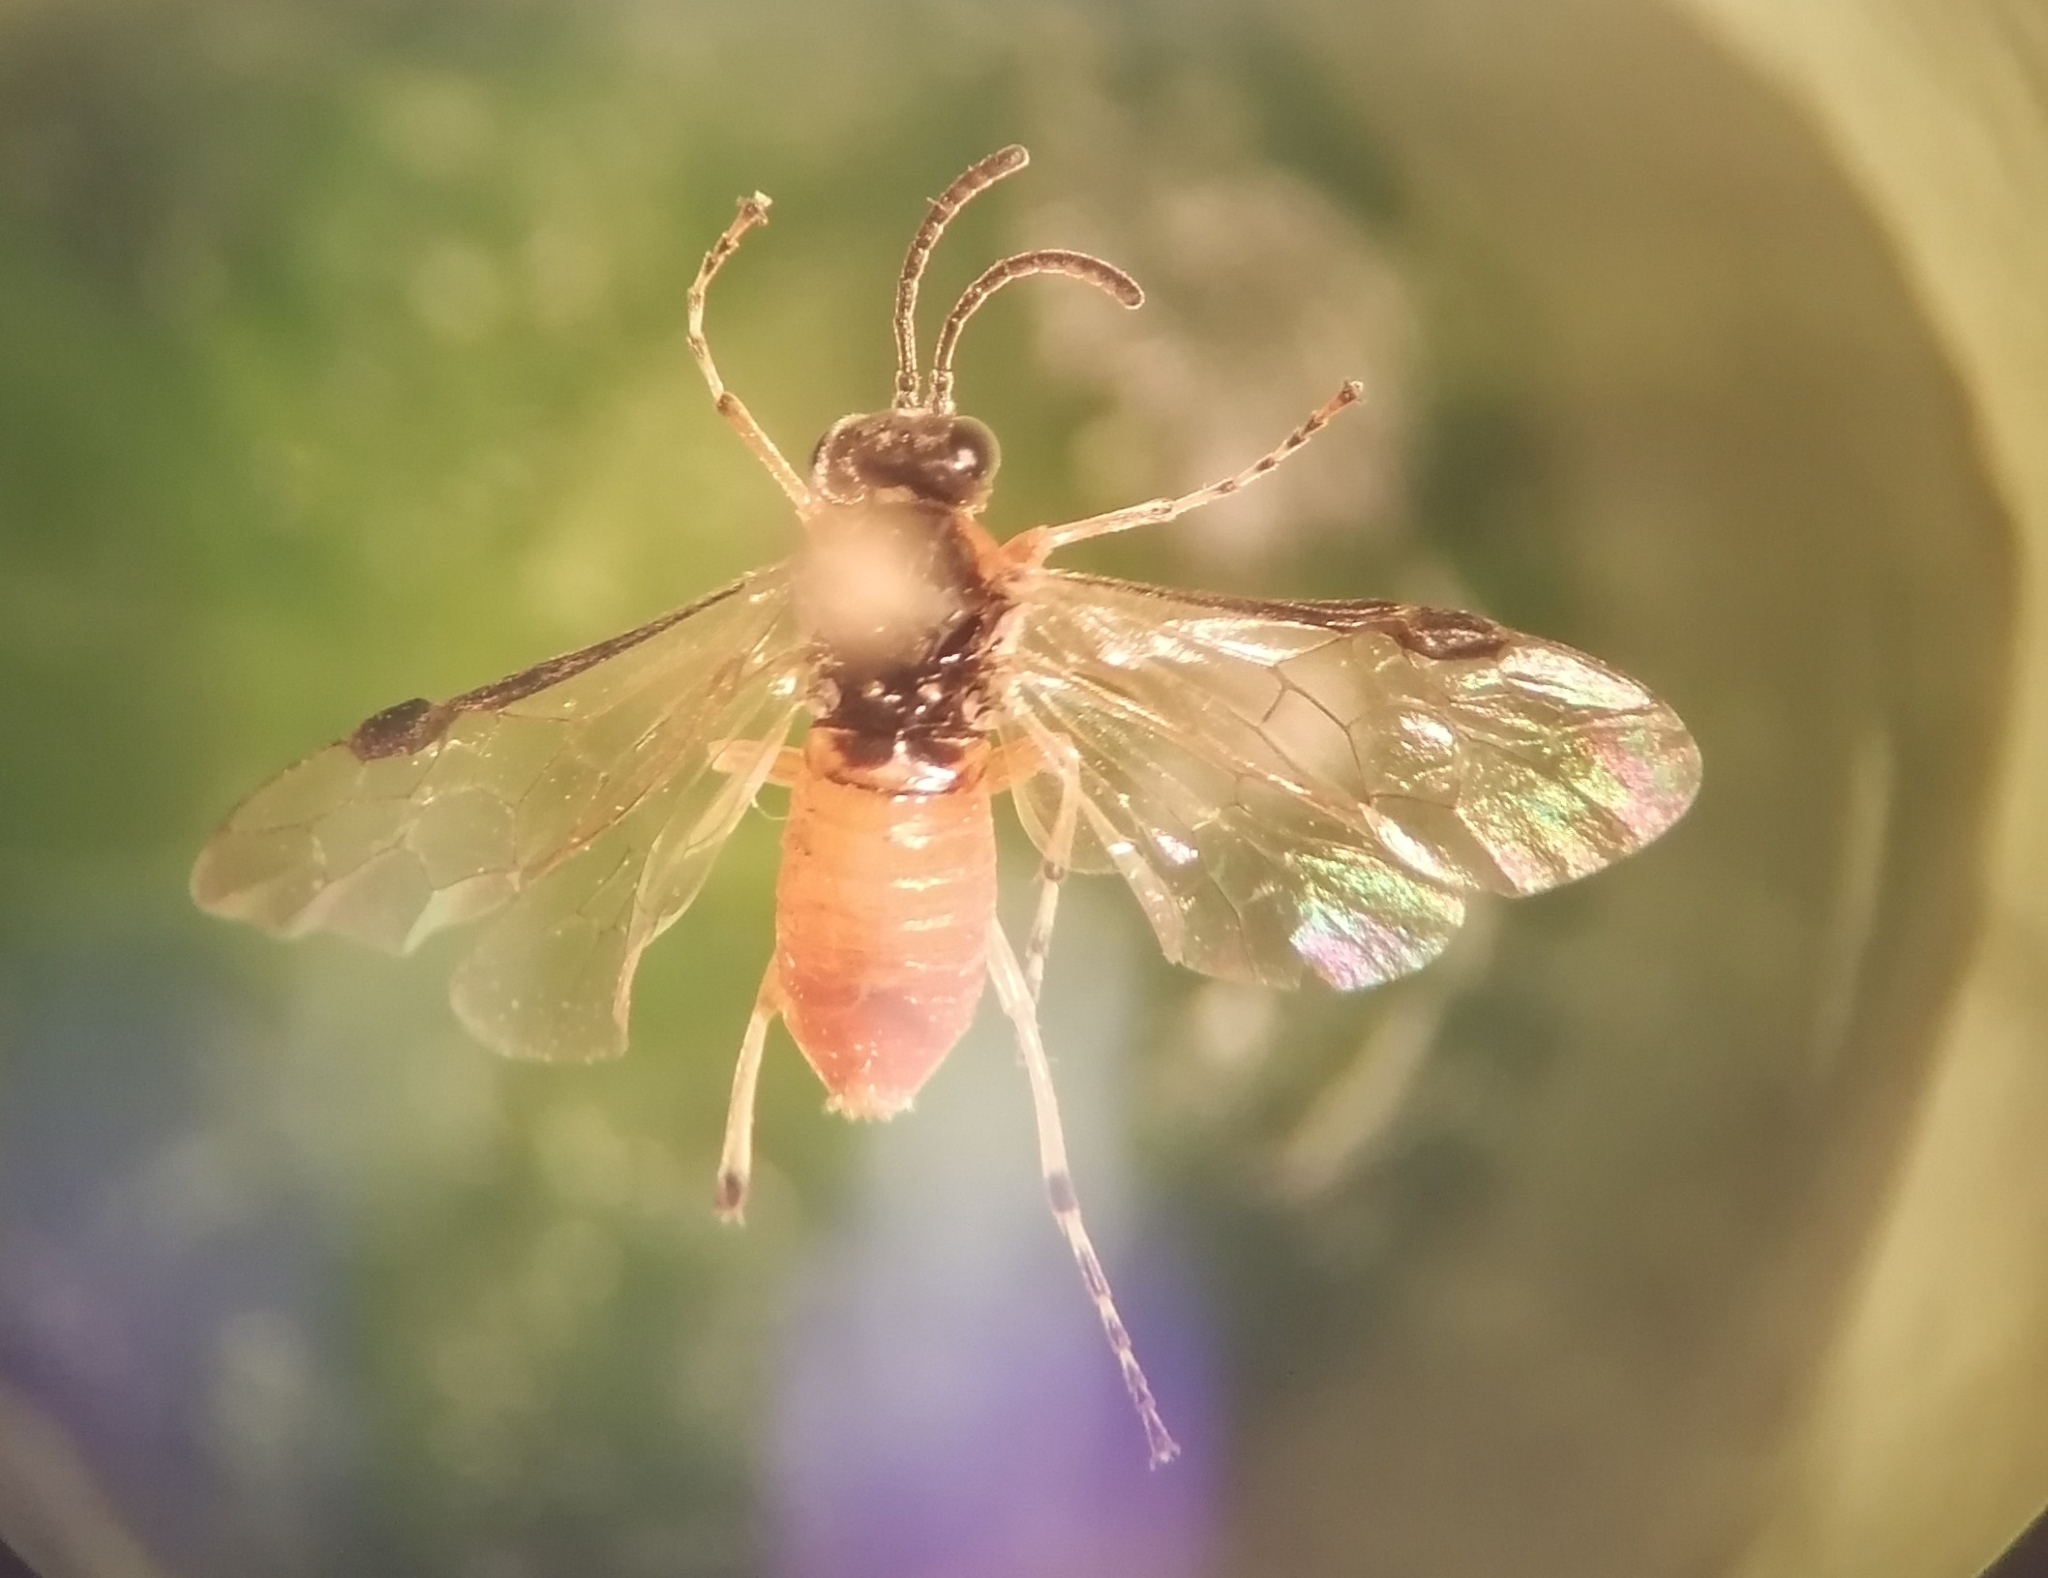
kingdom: Animalia
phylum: Arthropoda
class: Insecta
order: Hymenoptera
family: Tenthredinidae
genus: Athalia
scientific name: Athalia cordata
